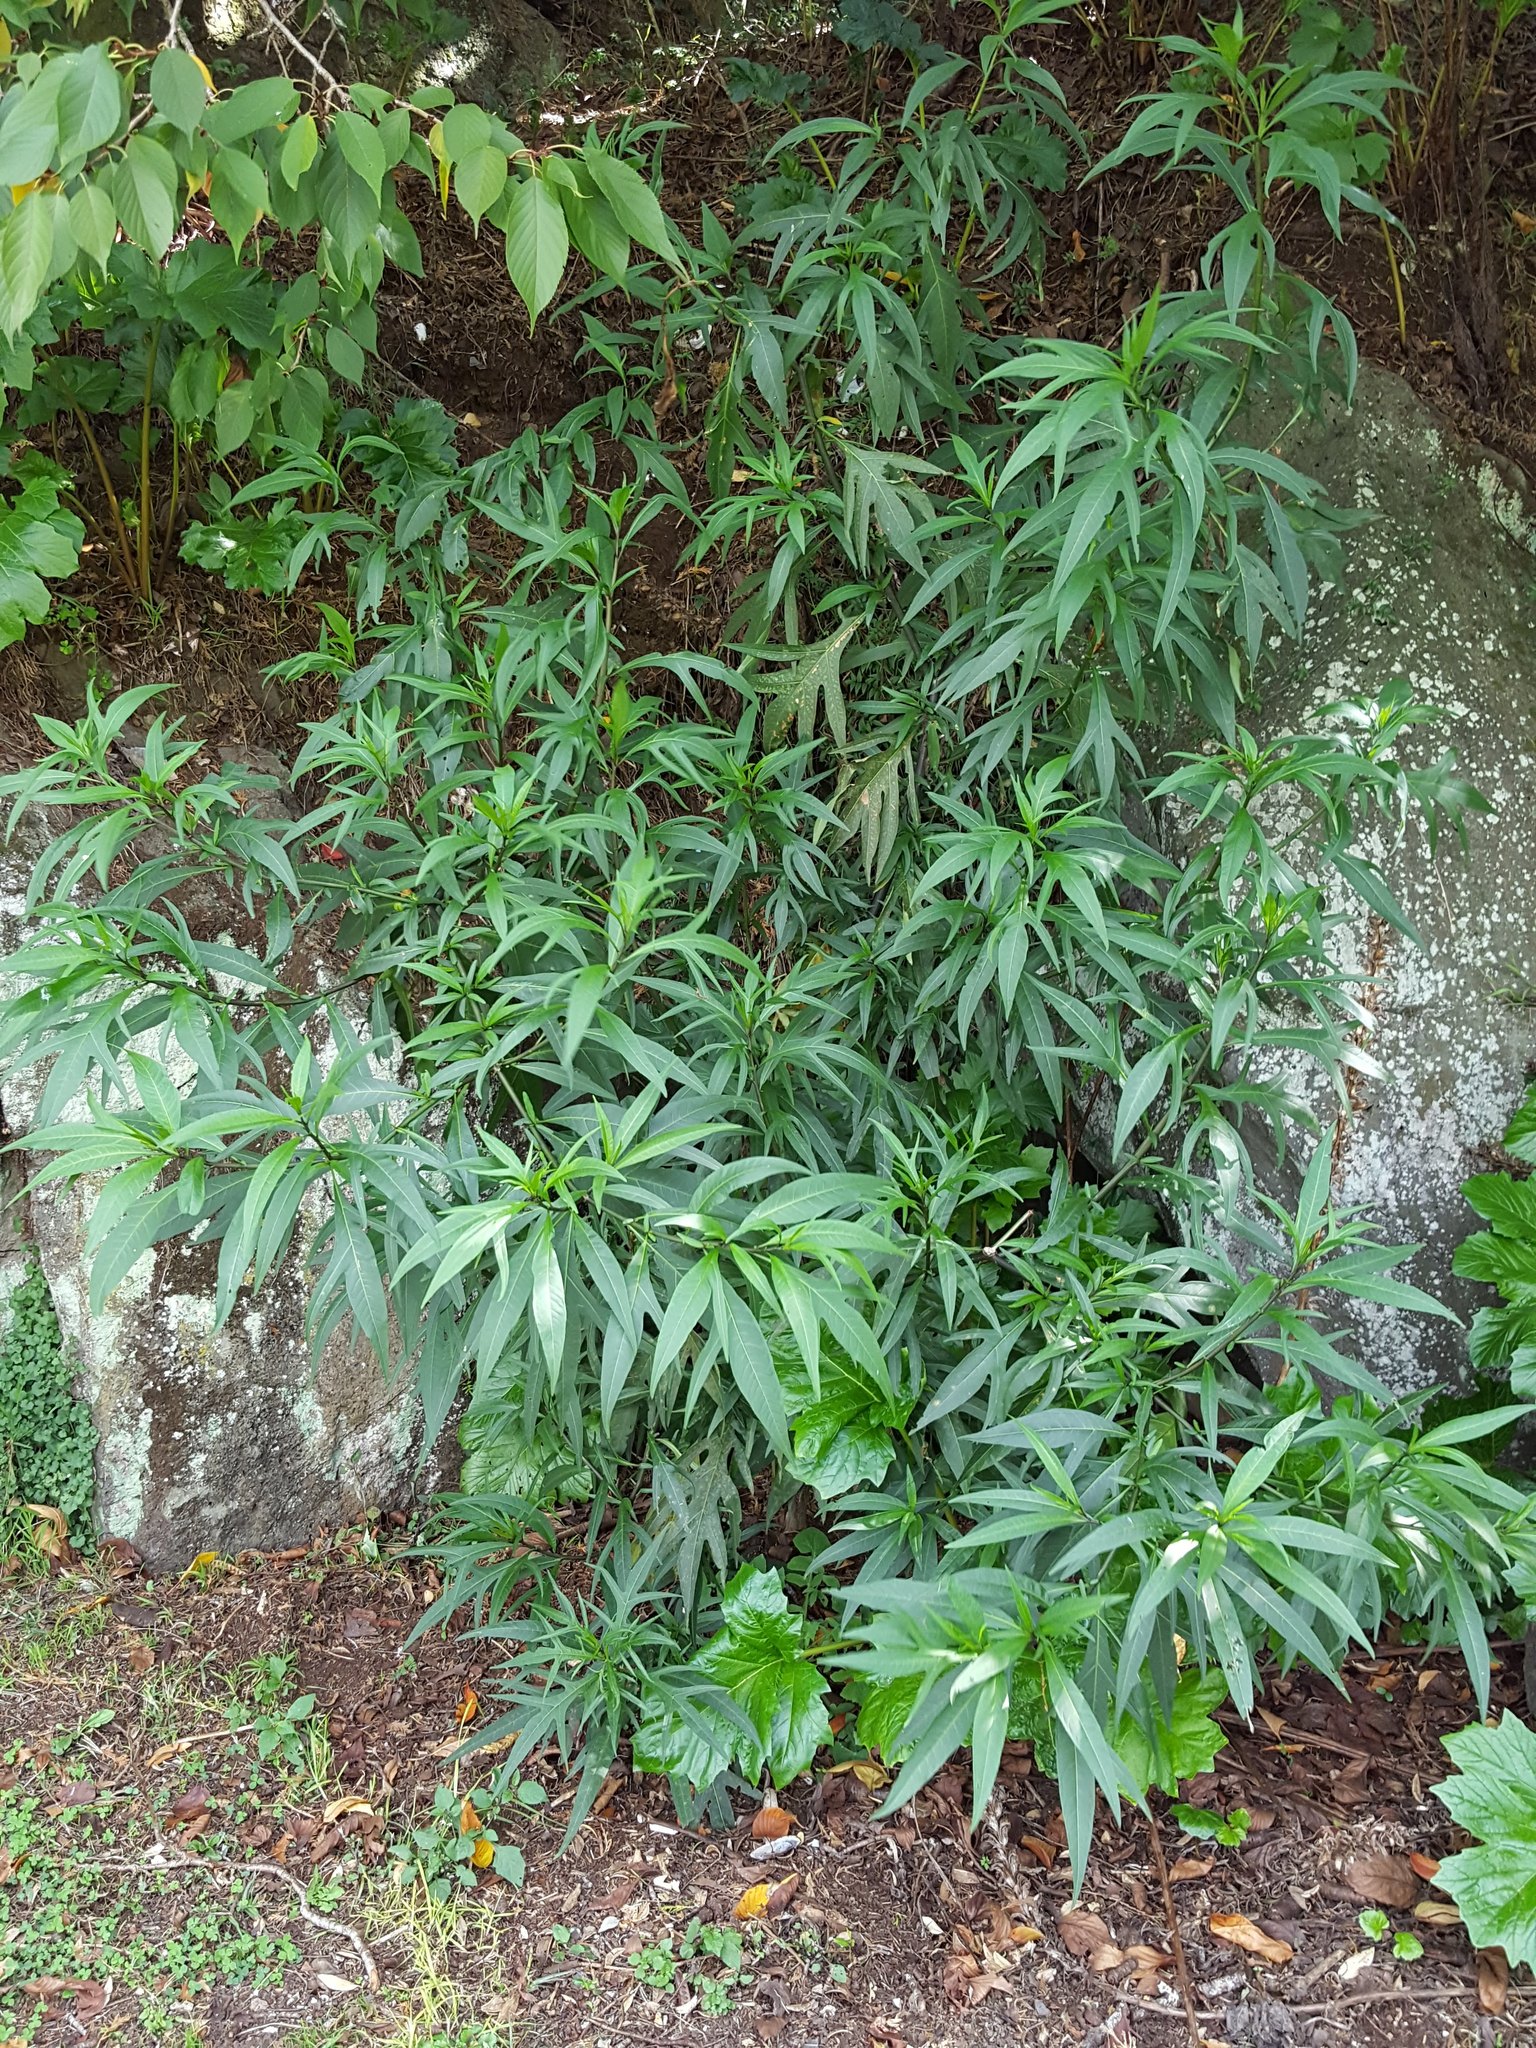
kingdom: Plantae
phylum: Tracheophyta
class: Magnoliopsida
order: Solanales
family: Solanaceae
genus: Solanum
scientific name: Solanum laciniatum
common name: Kangaroo-apple
